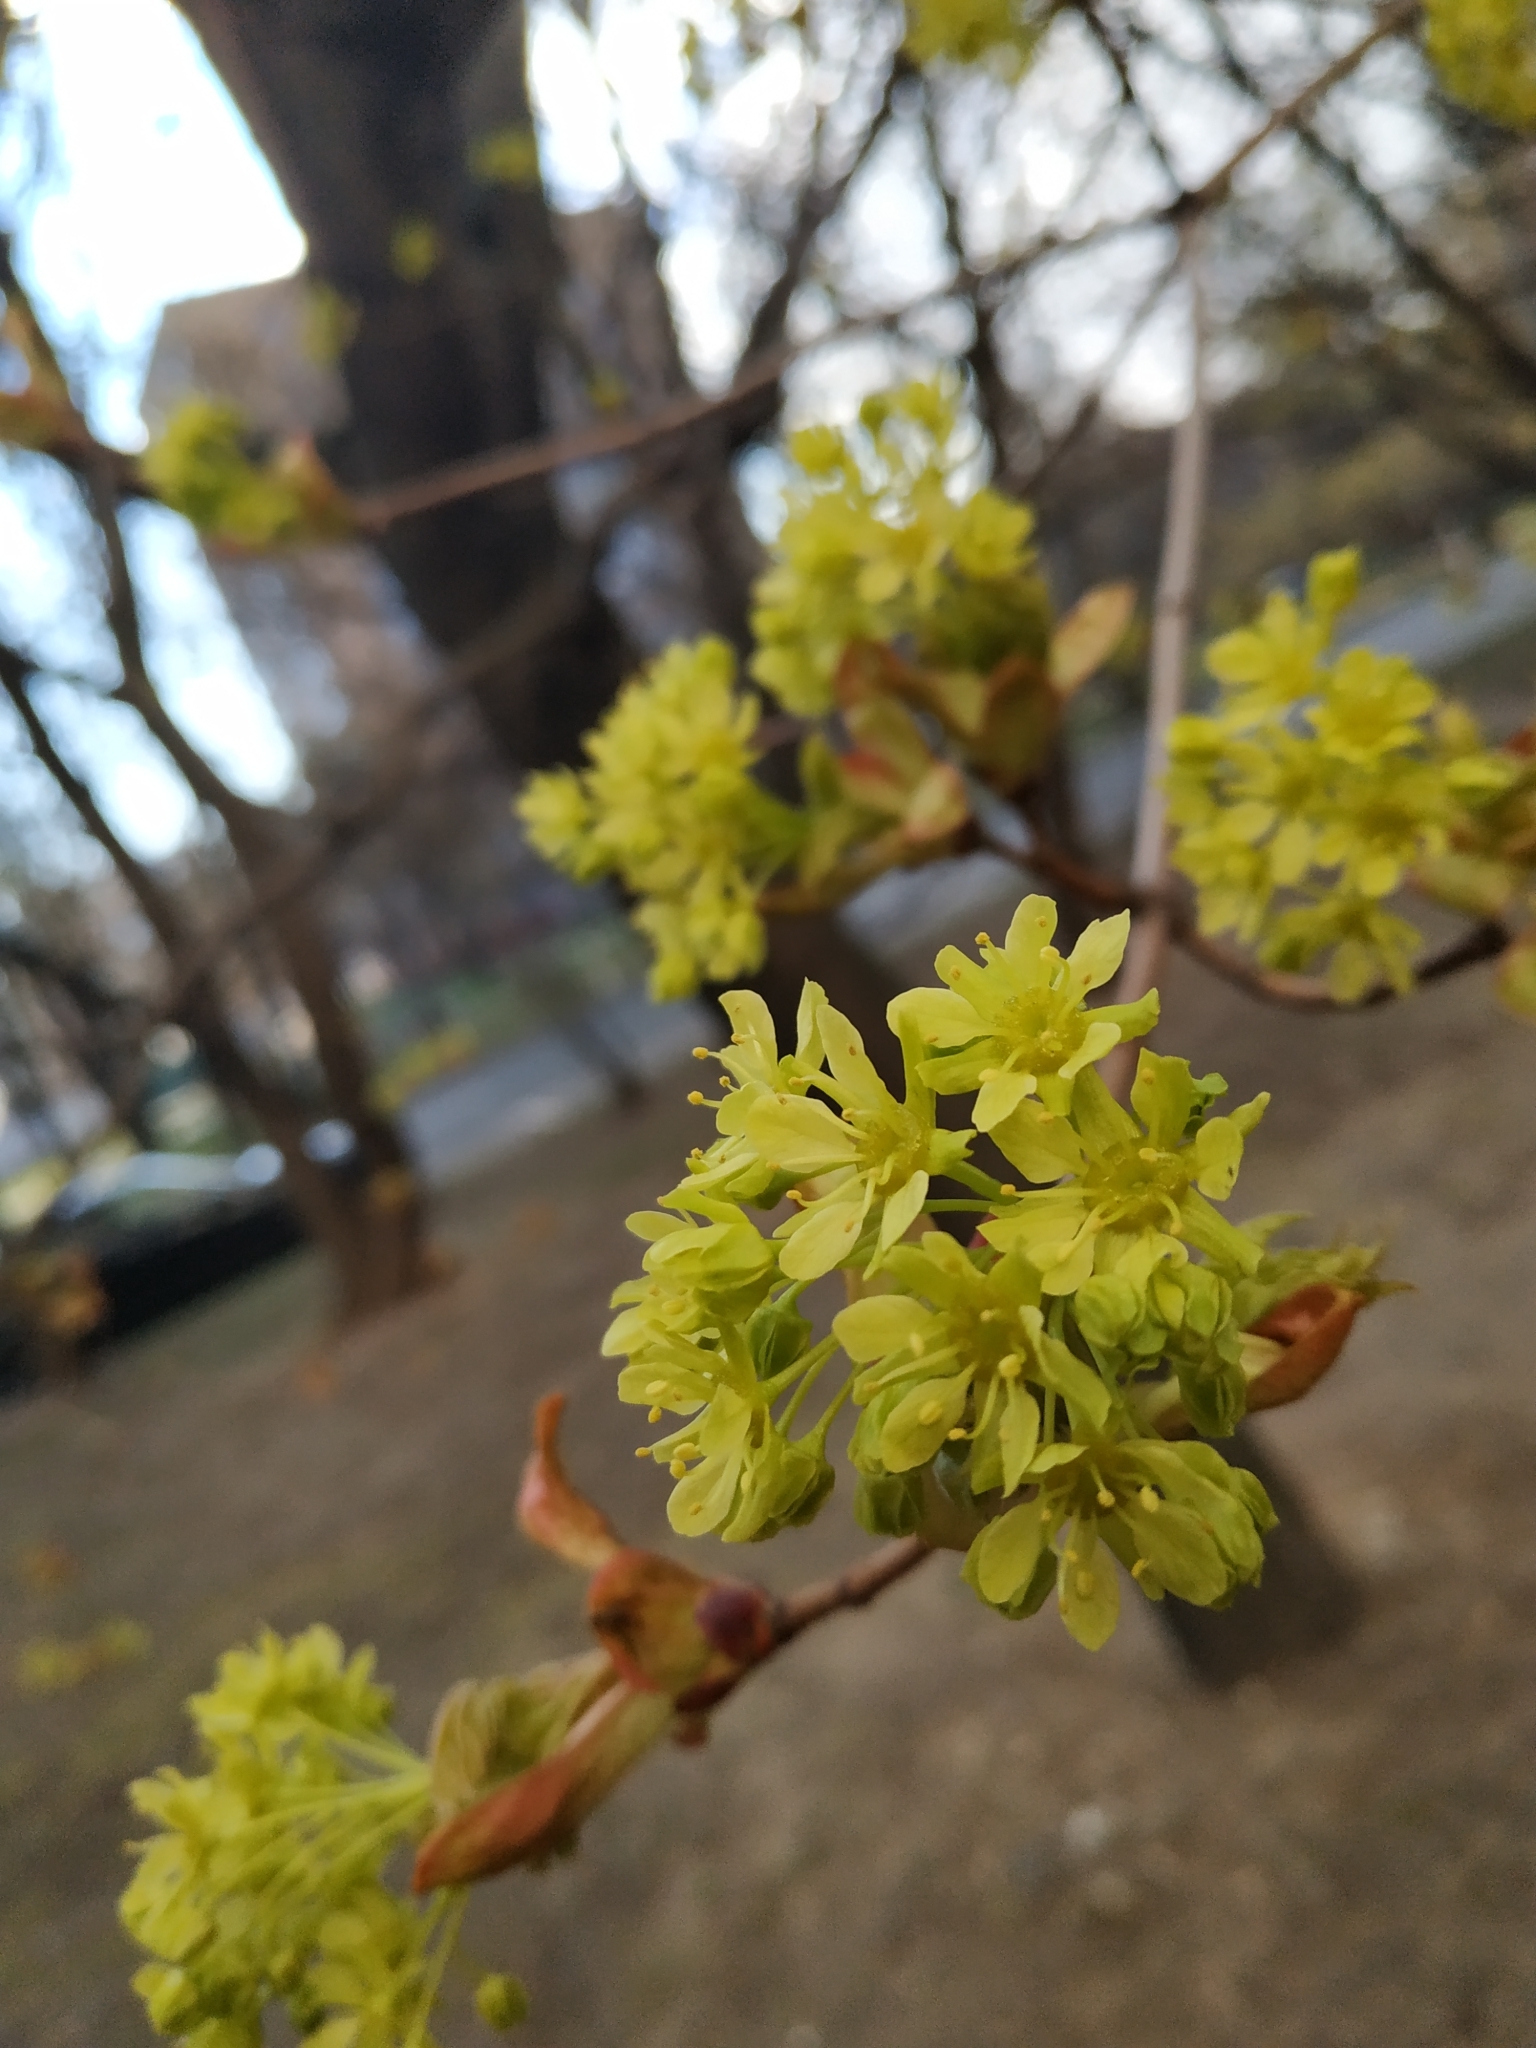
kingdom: Plantae
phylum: Tracheophyta
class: Magnoliopsida
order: Sapindales
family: Sapindaceae
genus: Acer
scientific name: Acer platanoides
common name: Norway maple
